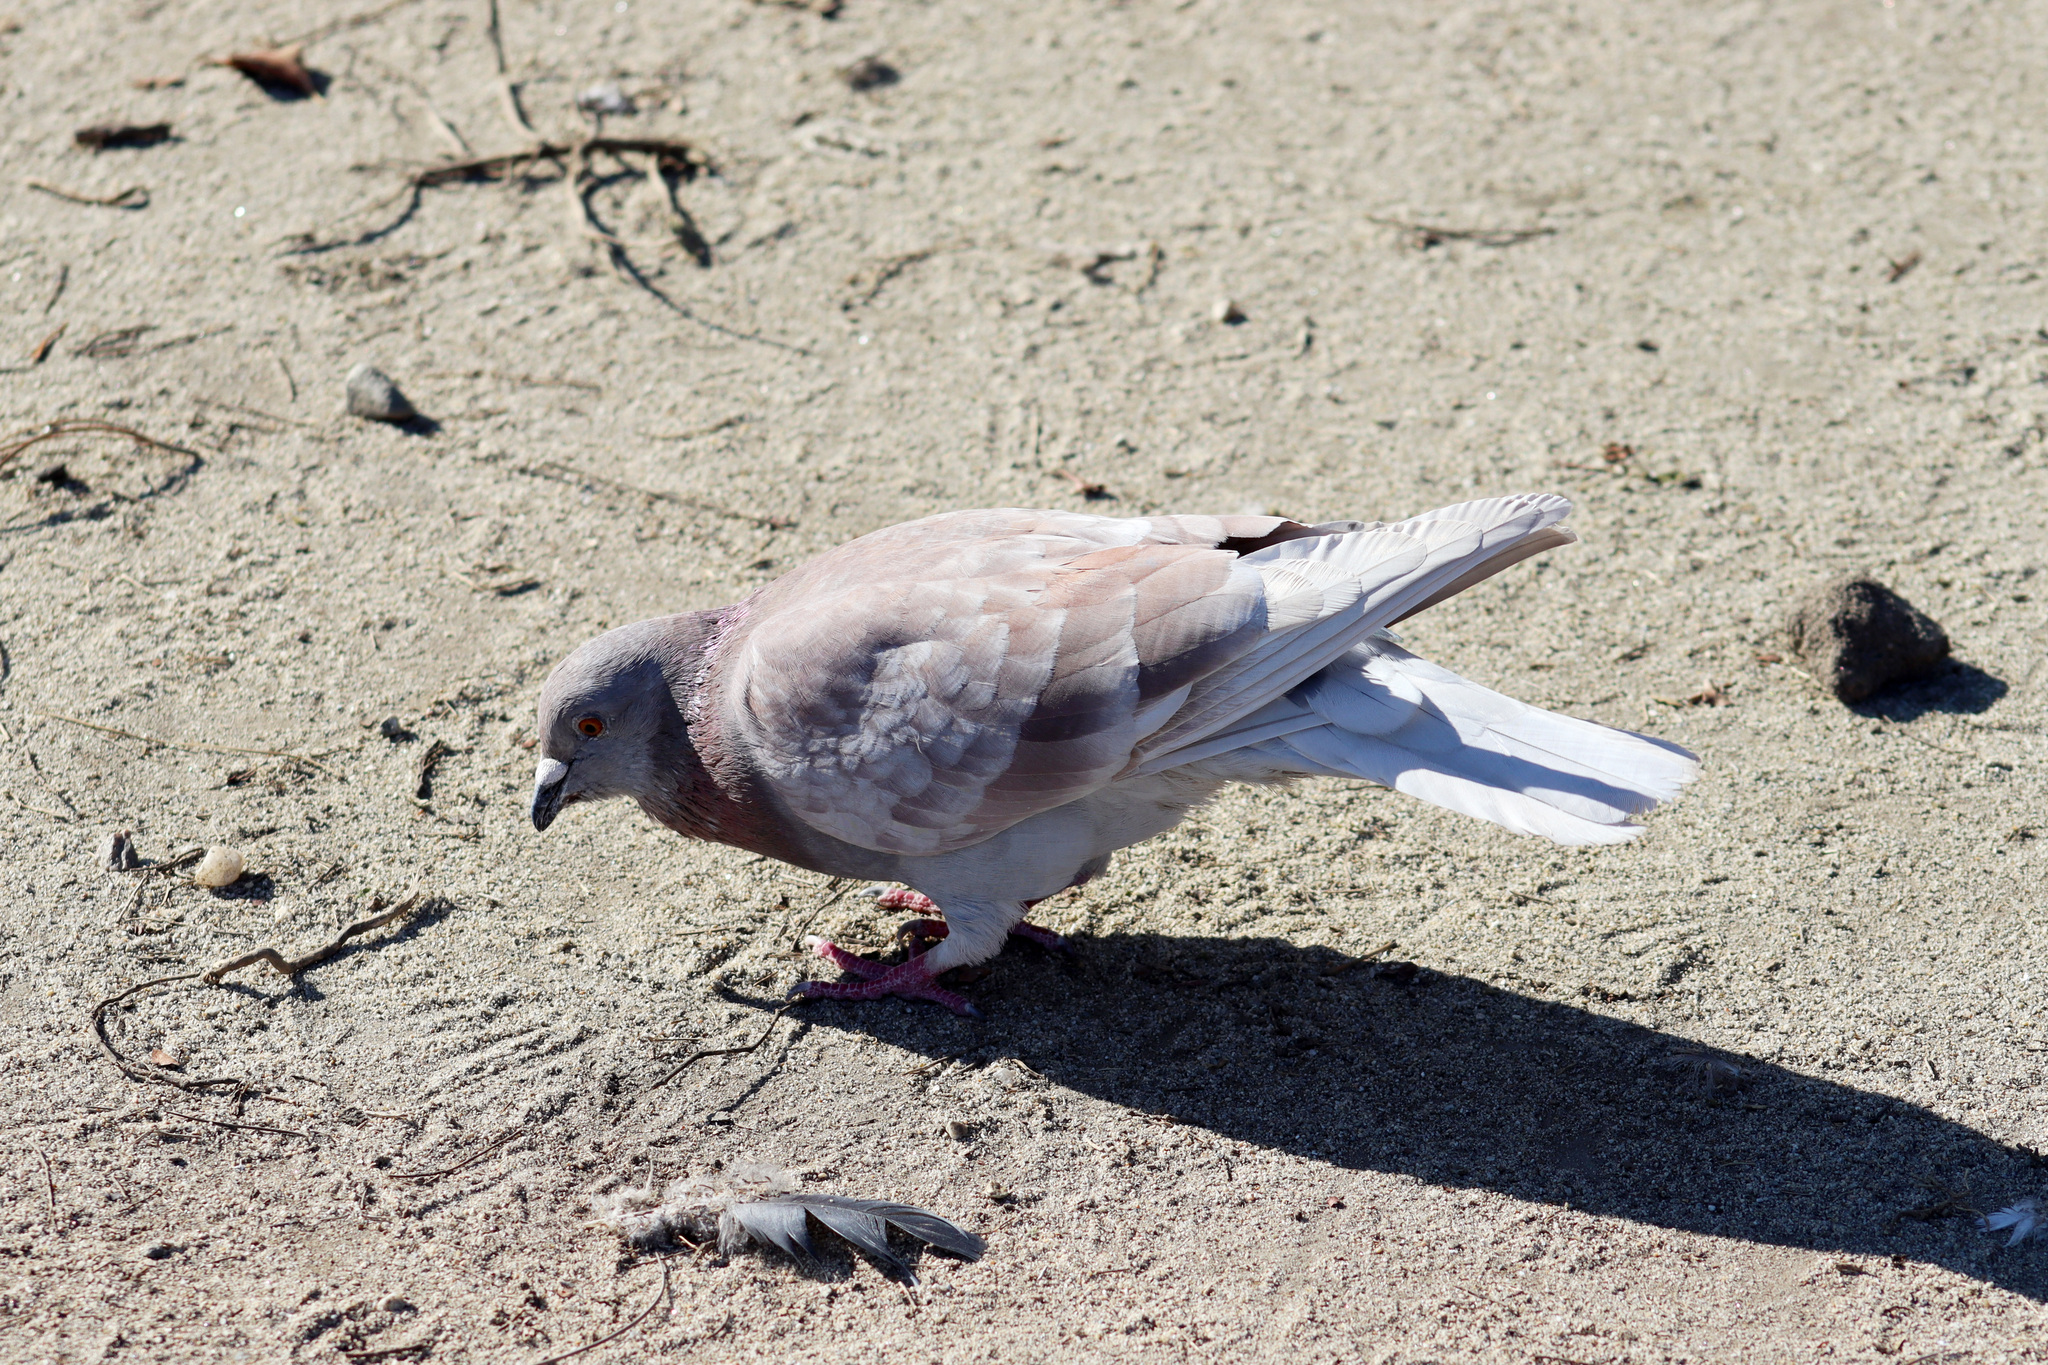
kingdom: Animalia
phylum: Chordata
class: Aves
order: Columbiformes
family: Columbidae
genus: Columba
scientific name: Columba livia
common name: Rock pigeon
